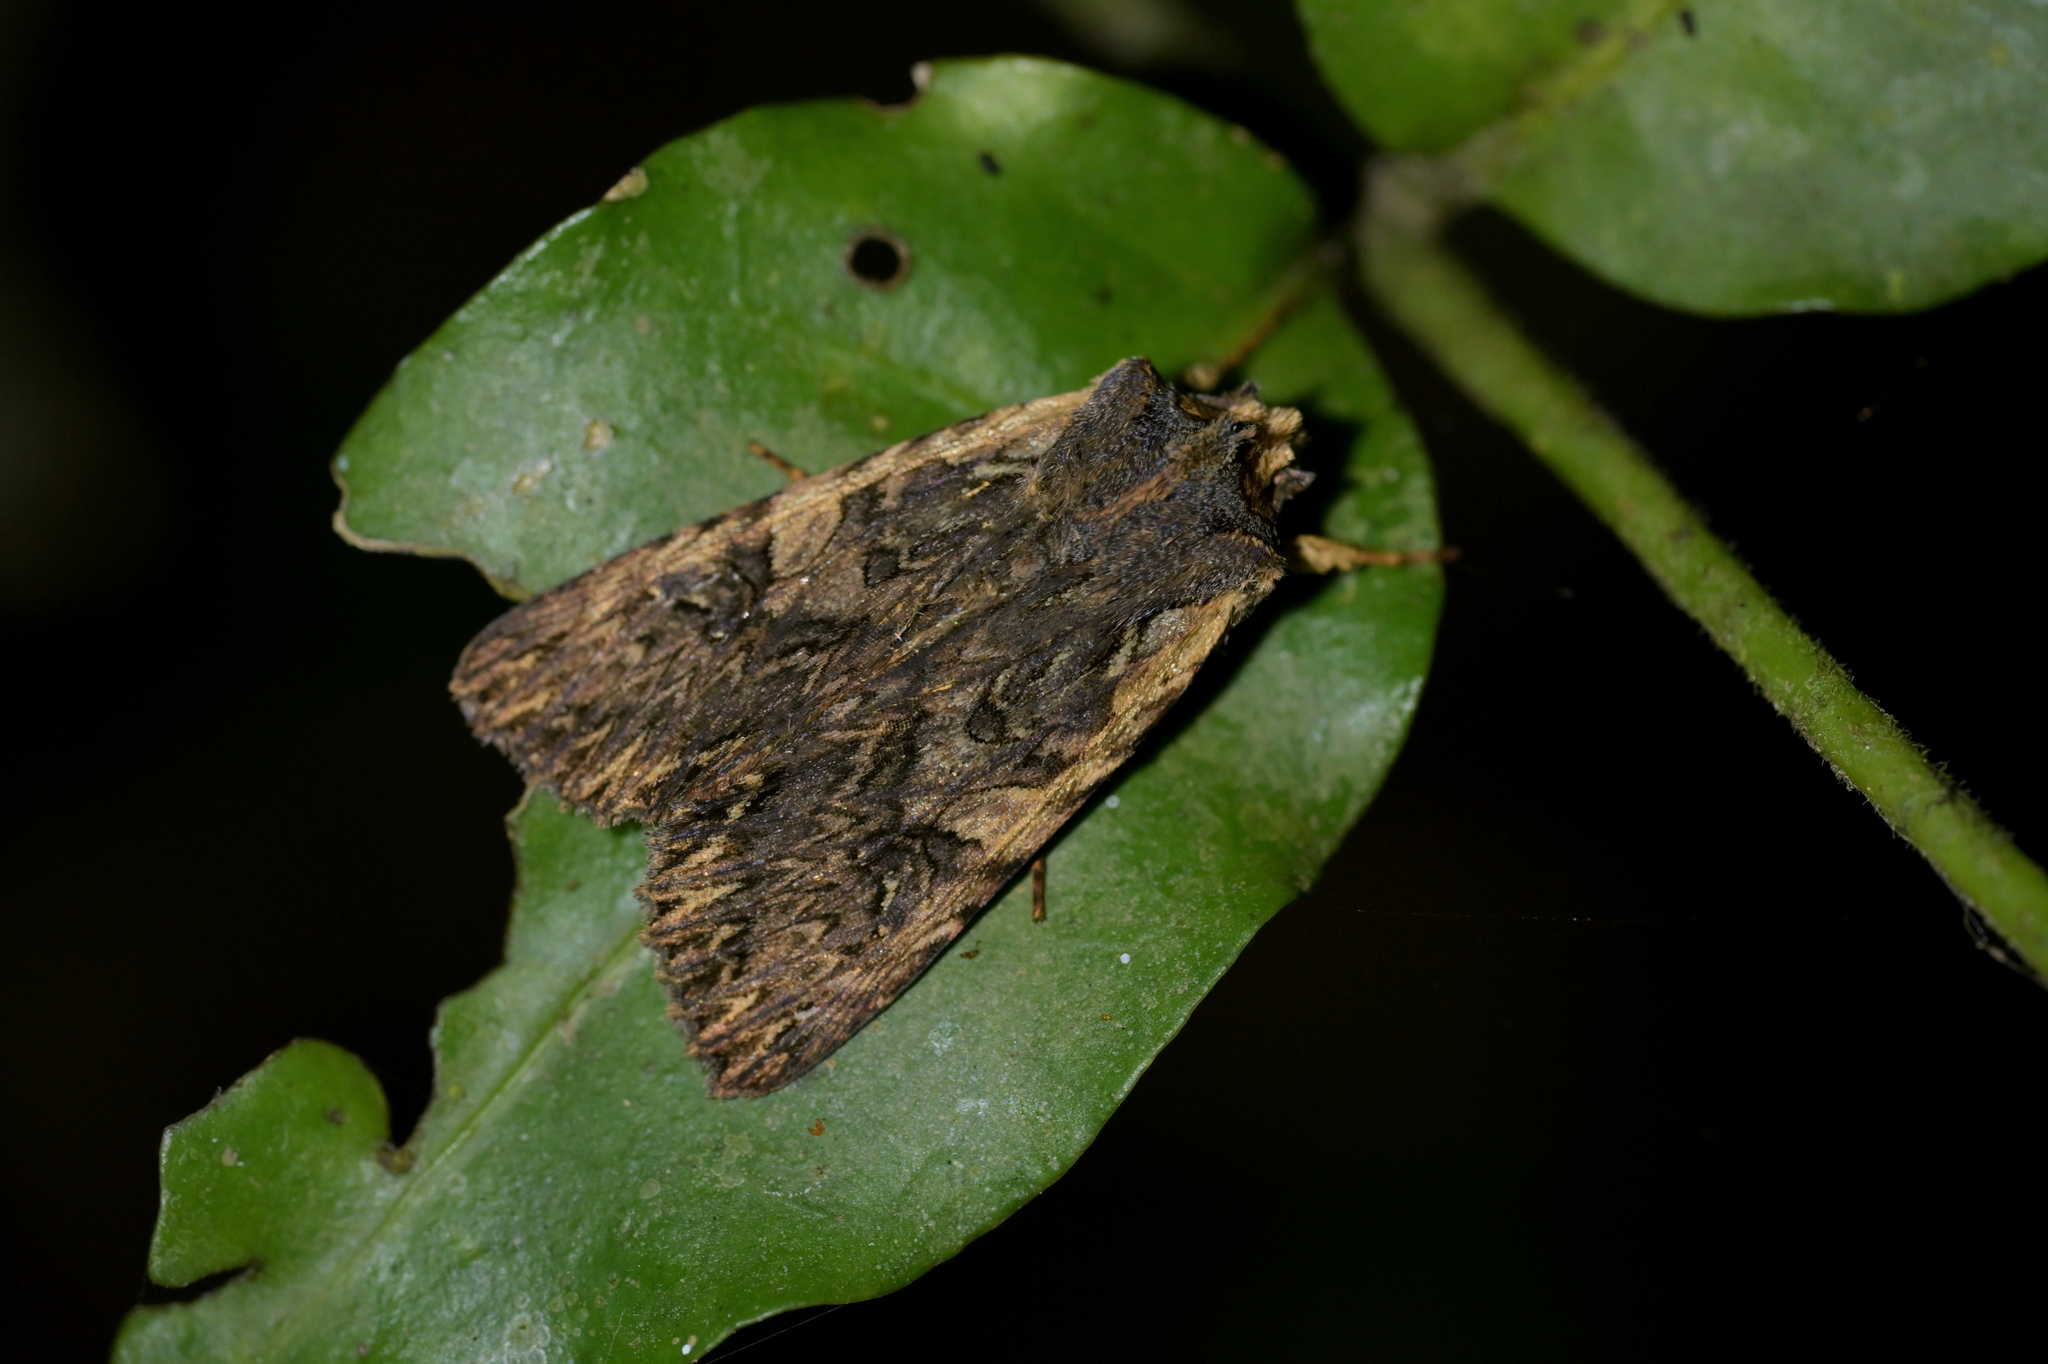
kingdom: Animalia
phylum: Arthropoda
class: Insecta
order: Lepidoptera
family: Noctuidae
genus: Meterana
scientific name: Meterana alcyone
